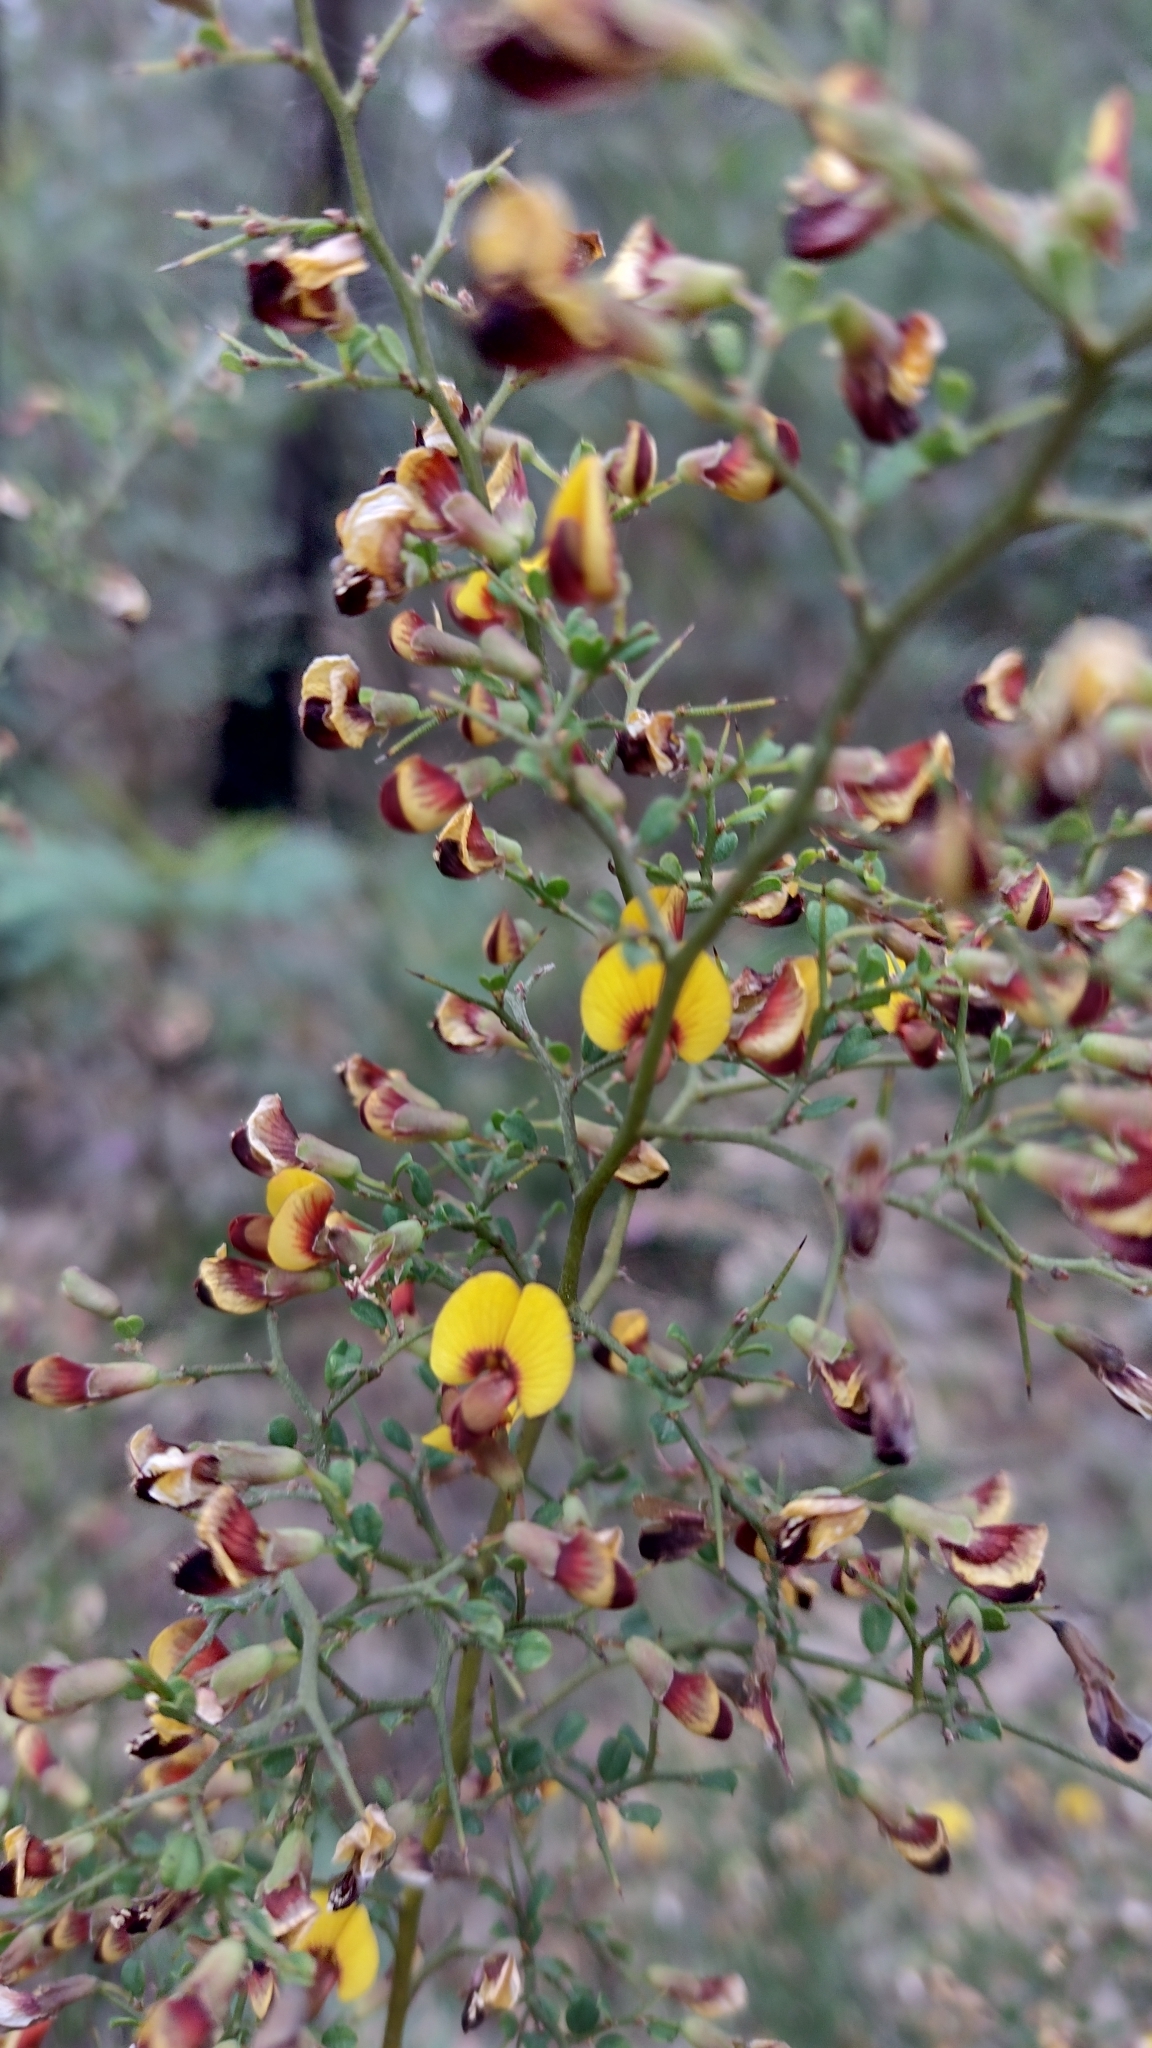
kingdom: Plantae
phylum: Tracheophyta
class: Magnoliopsida
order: Fabales
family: Fabaceae
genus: Bossiaea
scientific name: Bossiaea obcordata
